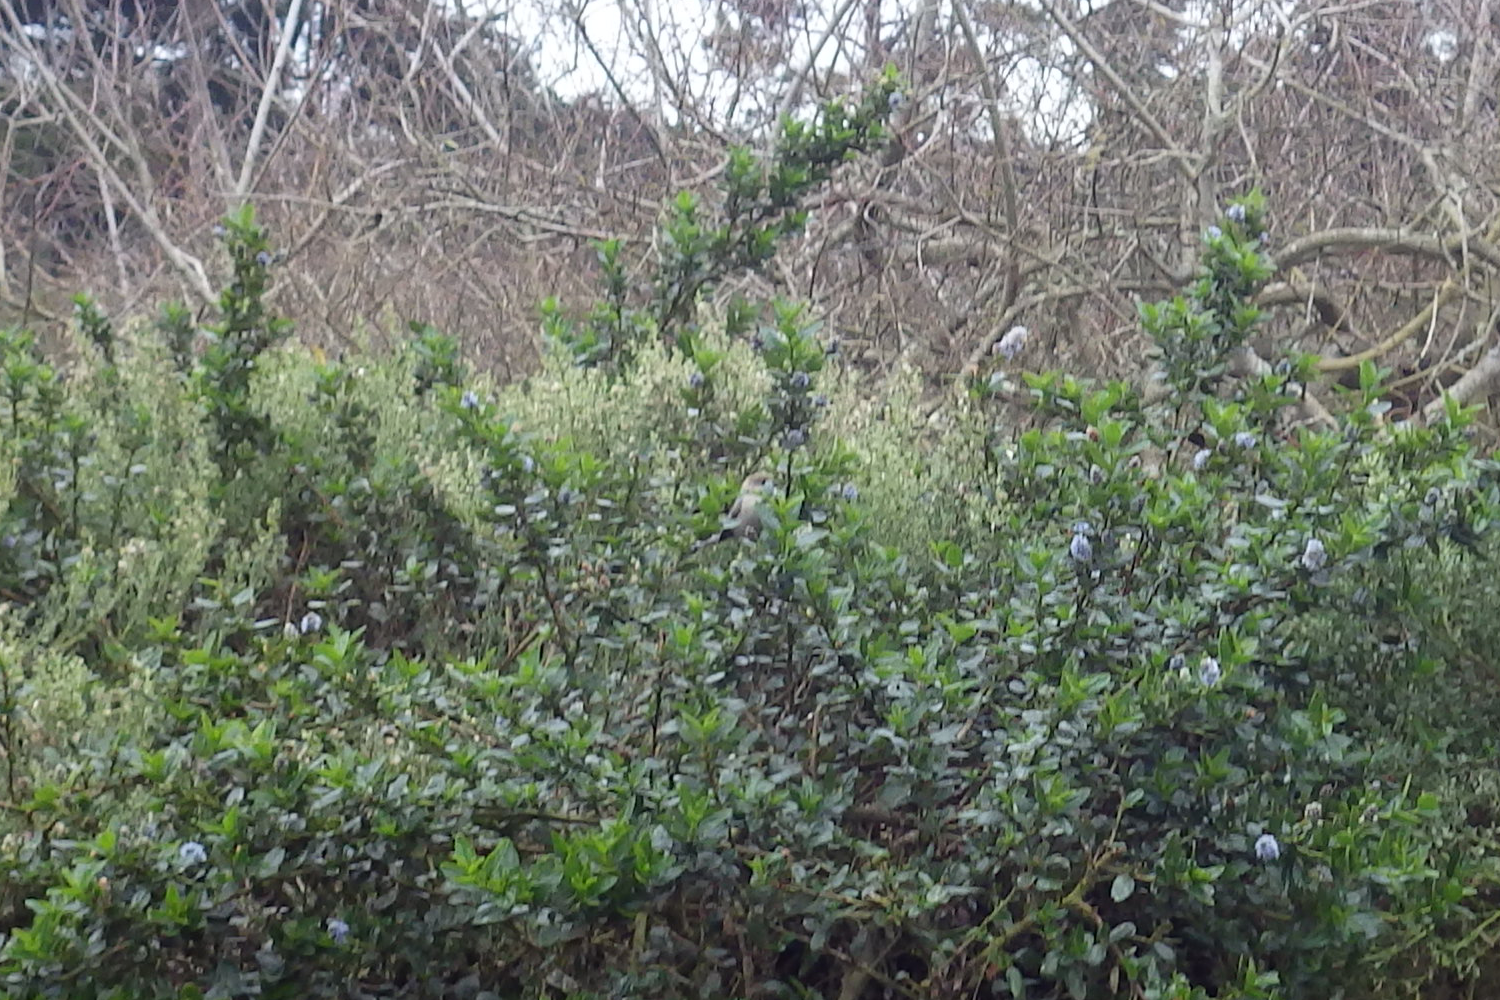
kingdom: Animalia
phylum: Chordata
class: Aves
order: Passeriformes
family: Aegithalidae
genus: Psaltriparus
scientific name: Psaltriparus minimus
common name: American bushtit
